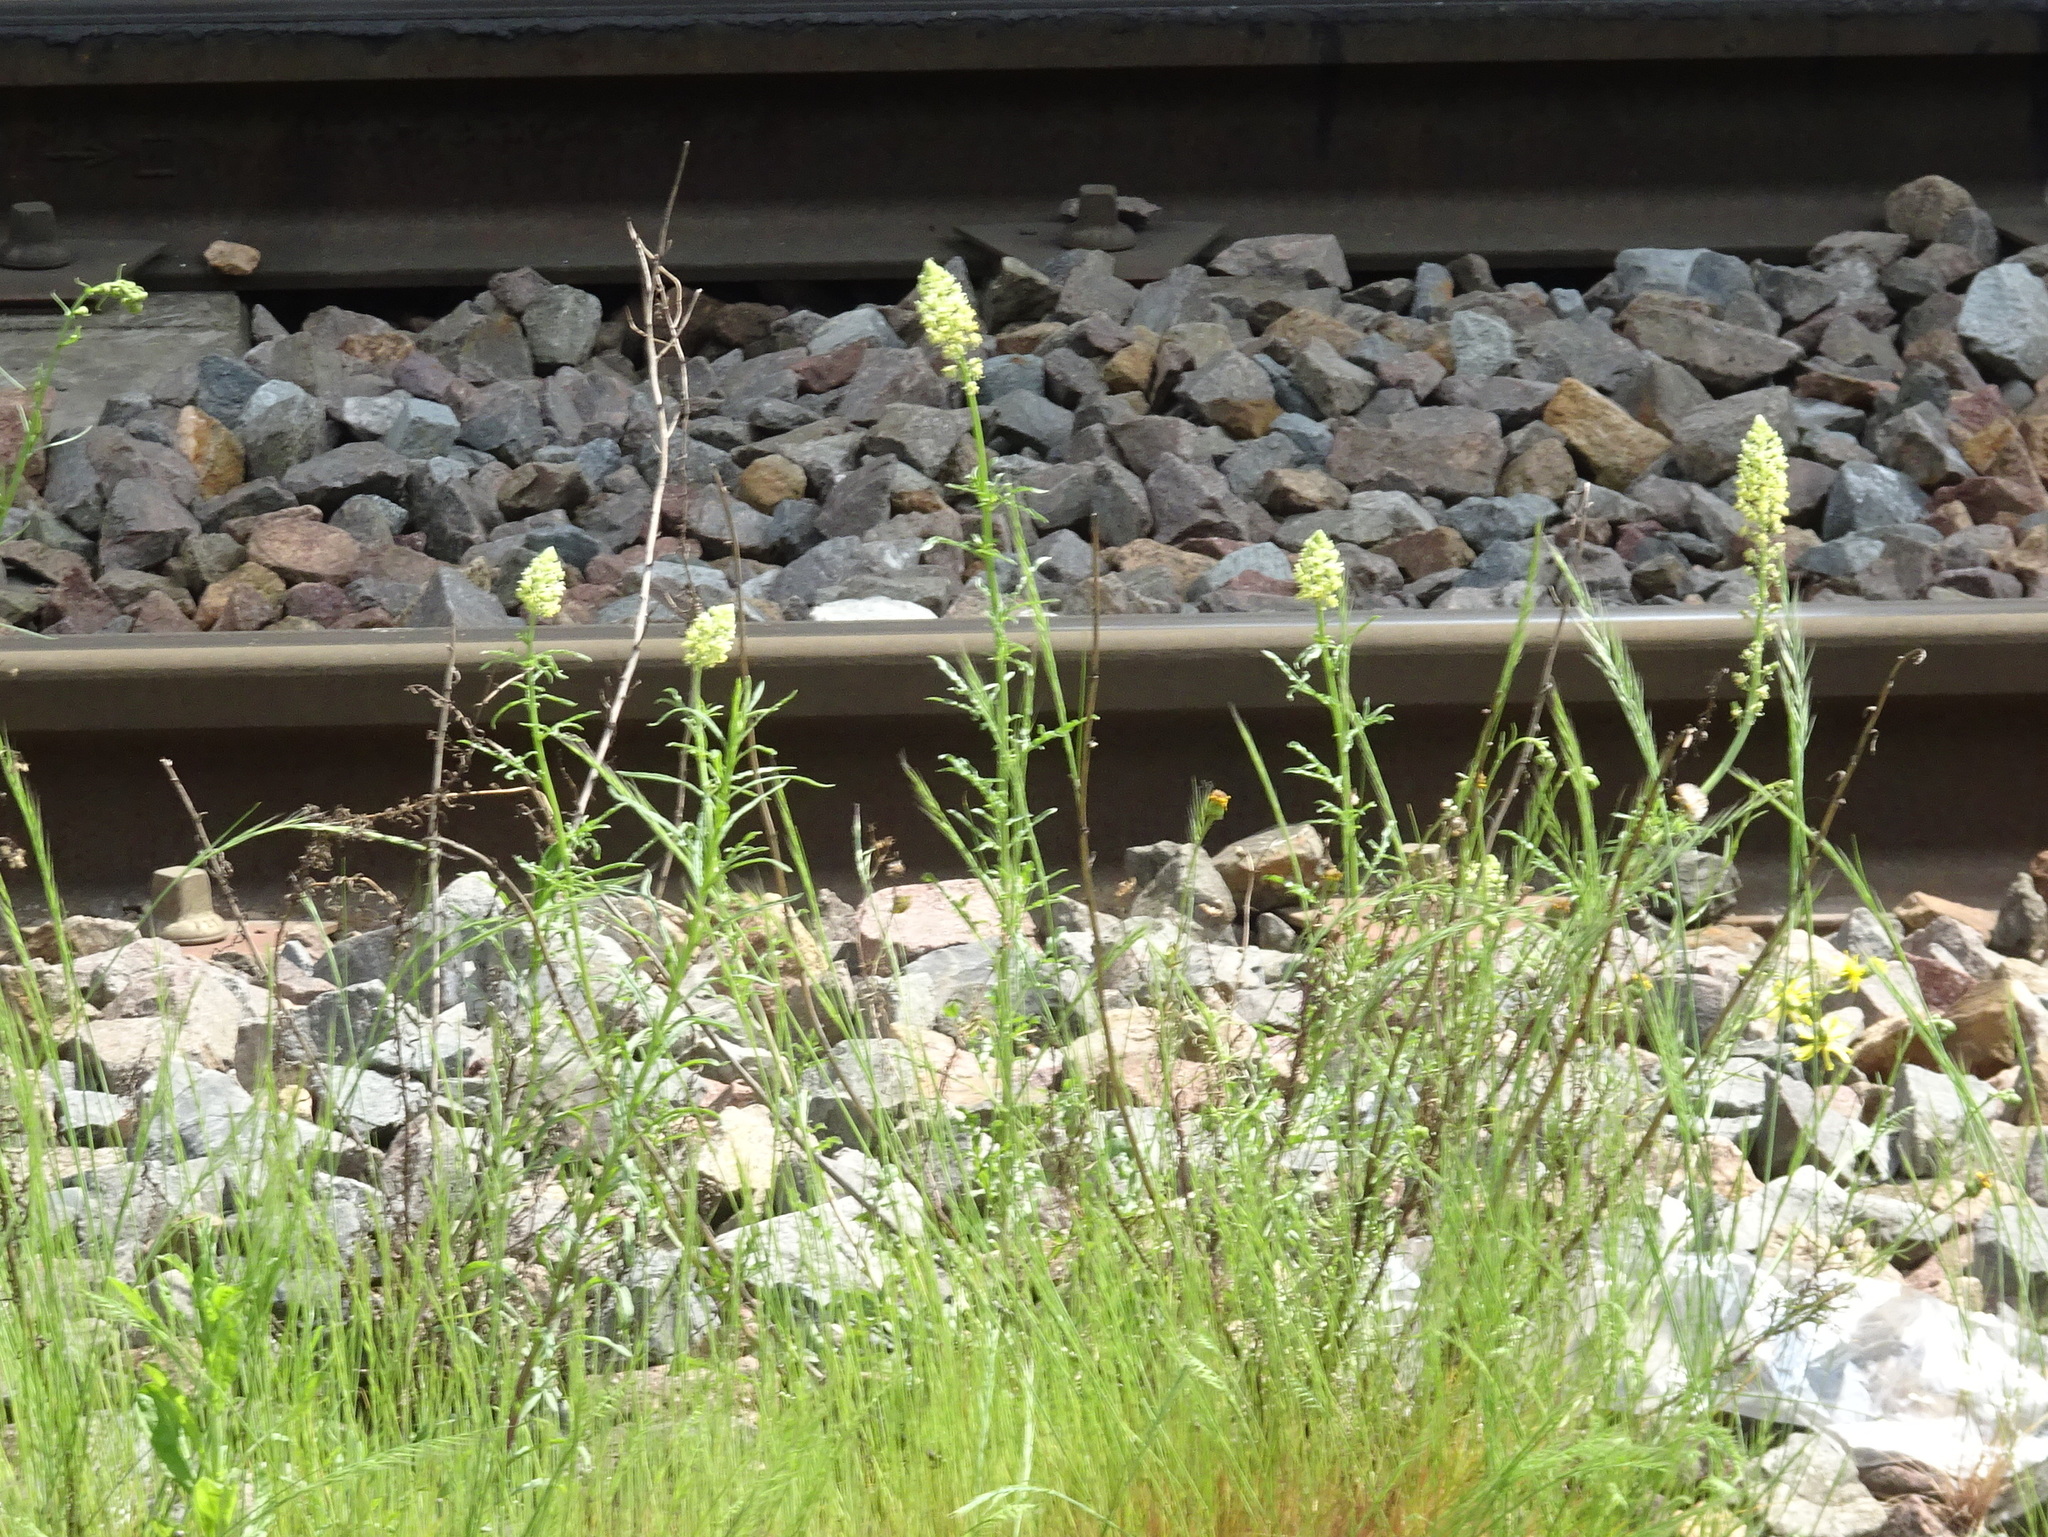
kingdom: Plantae
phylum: Tracheophyta
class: Magnoliopsida
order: Brassicales
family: Resedaceae
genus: Reseda
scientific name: Reseda lutea
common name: Wild mignonette
